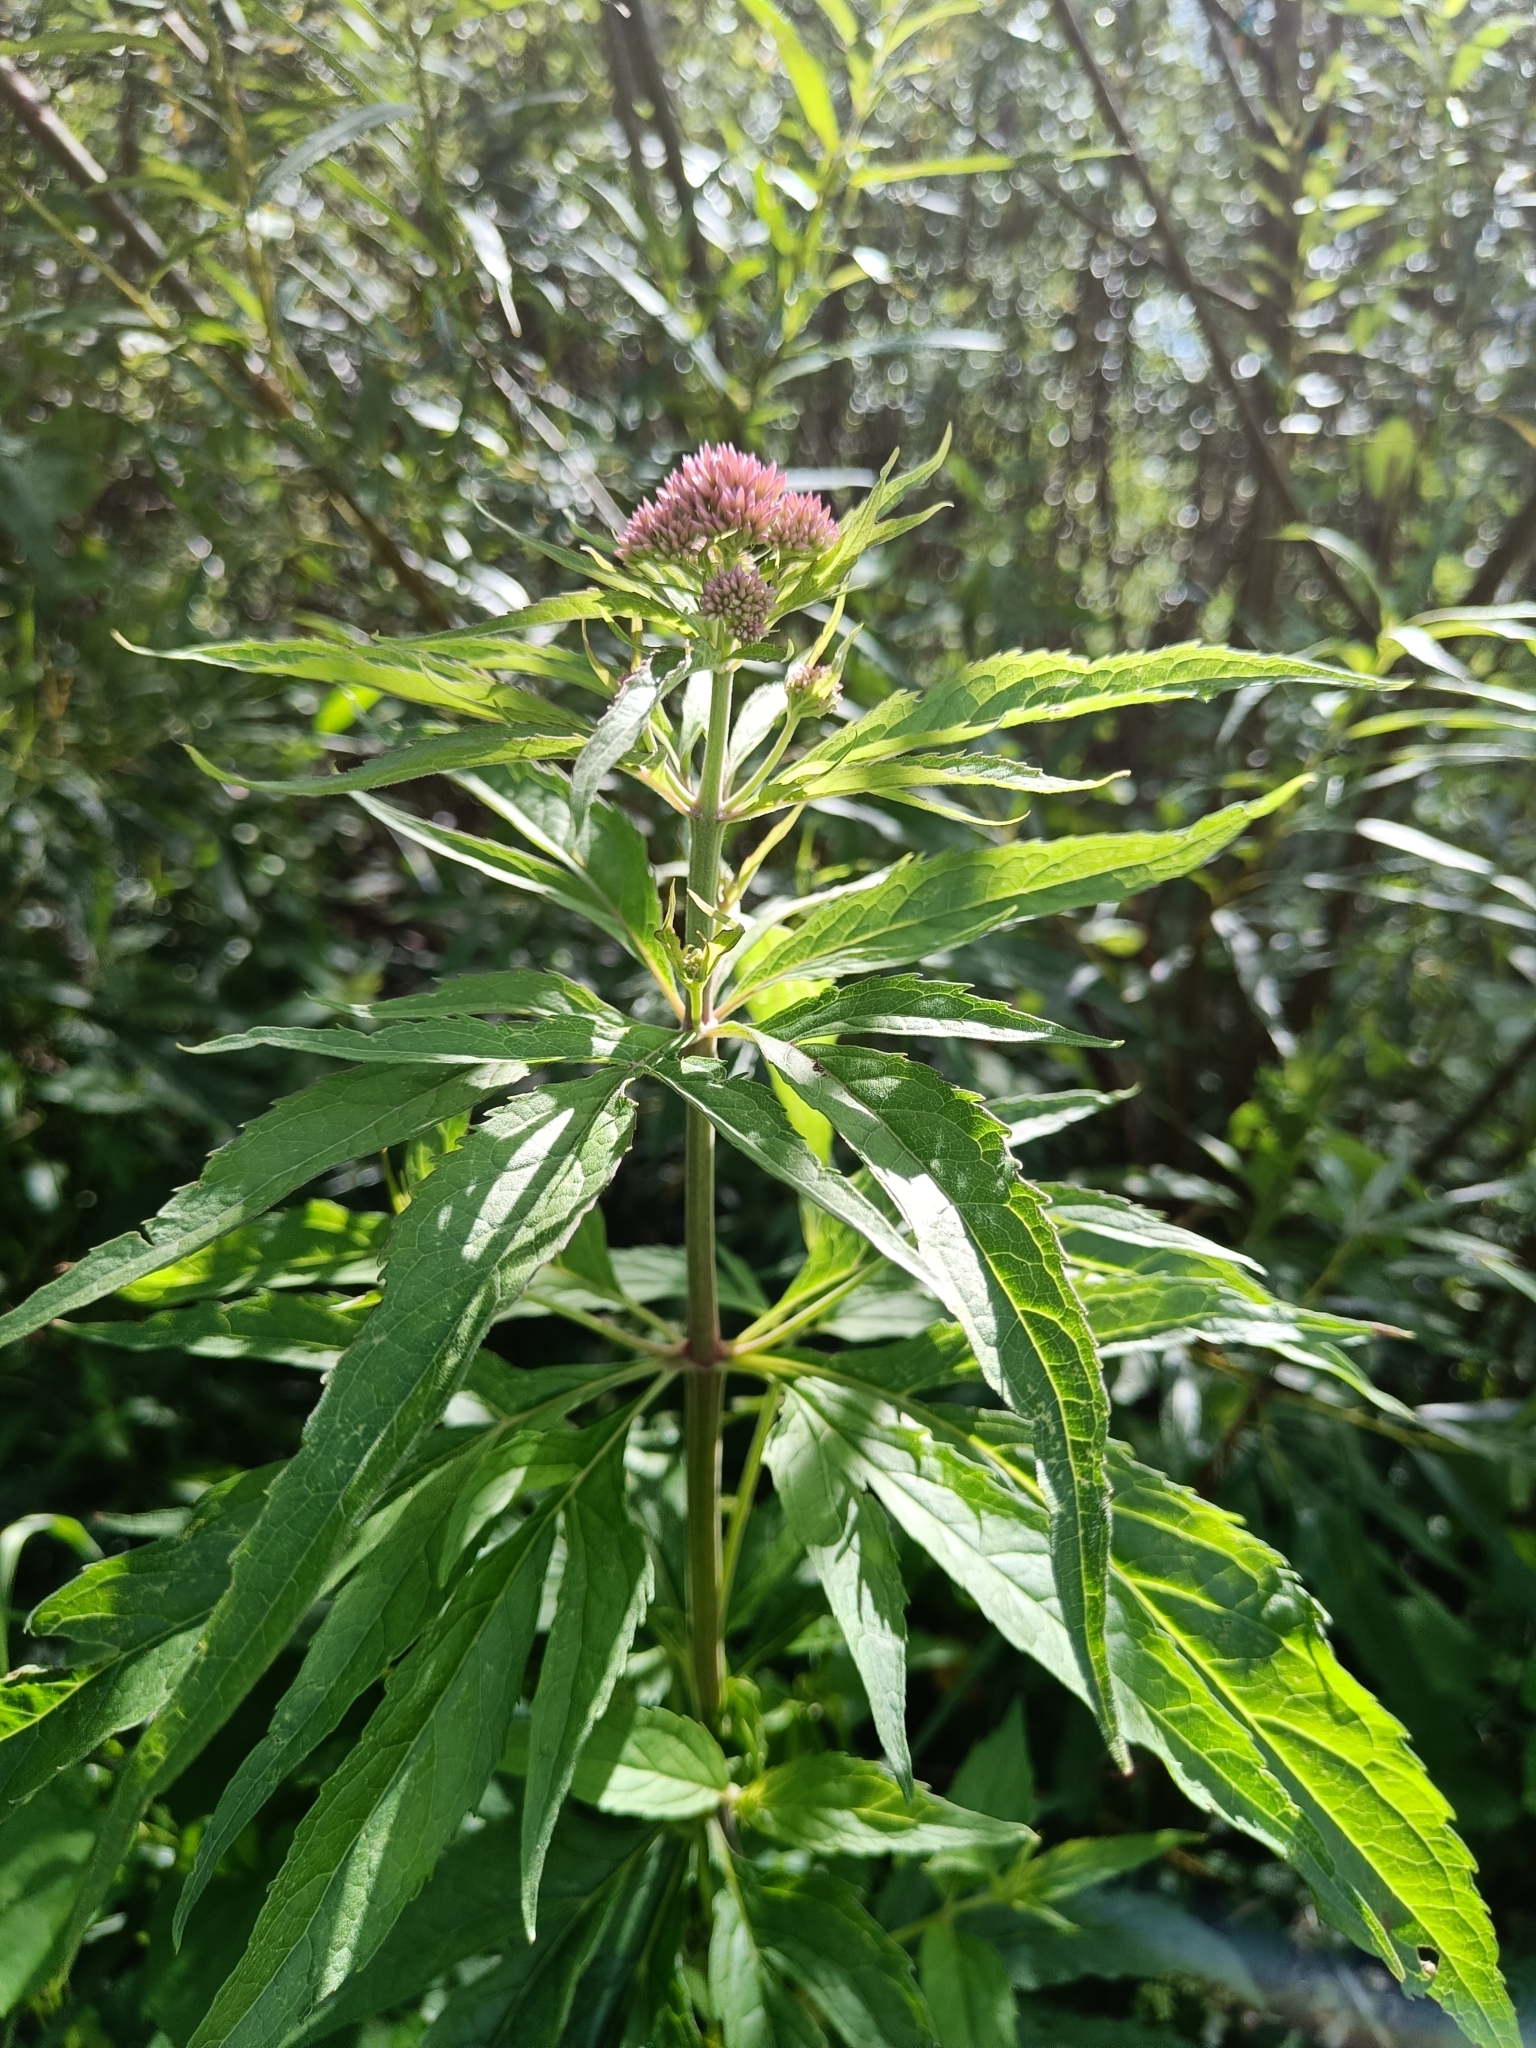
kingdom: Plantae
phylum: Tracheophyta
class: Magnoliopsida
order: Asterales
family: Asteraceae
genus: Eupatorium
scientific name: Eupatorium cannabinum
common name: Hemp-agrimony
